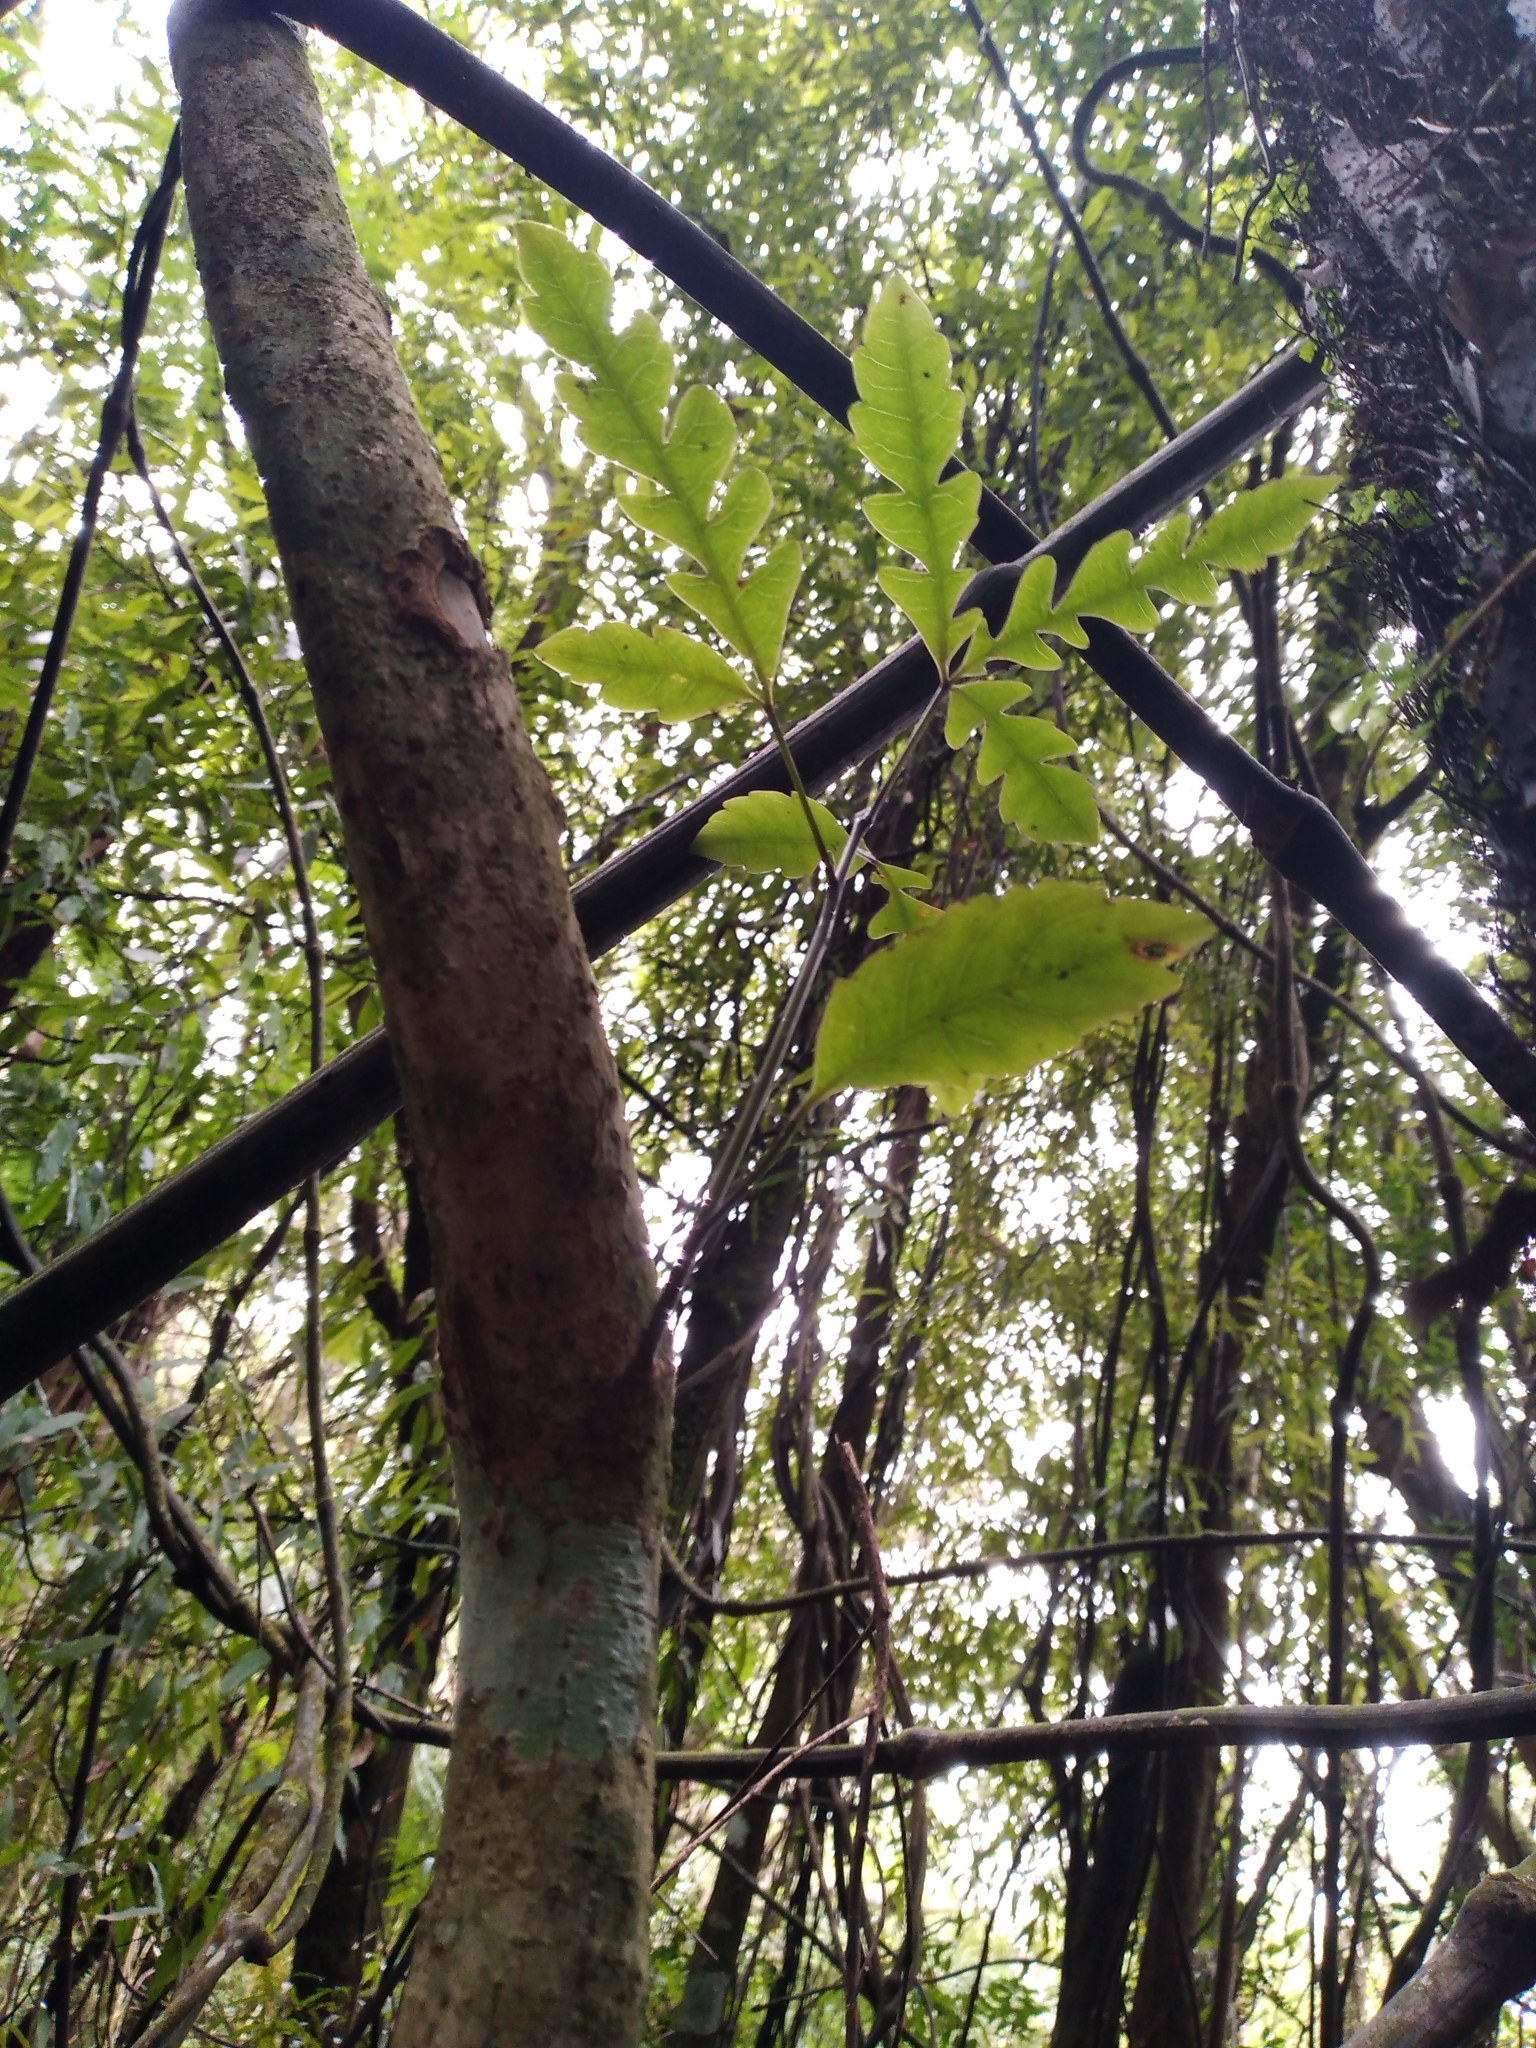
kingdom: Plantae
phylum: Tracheophyta
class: Magnoliopsida
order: Apiales
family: Araliaceae
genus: Raukaua
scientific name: Raukaua edgerleyi
